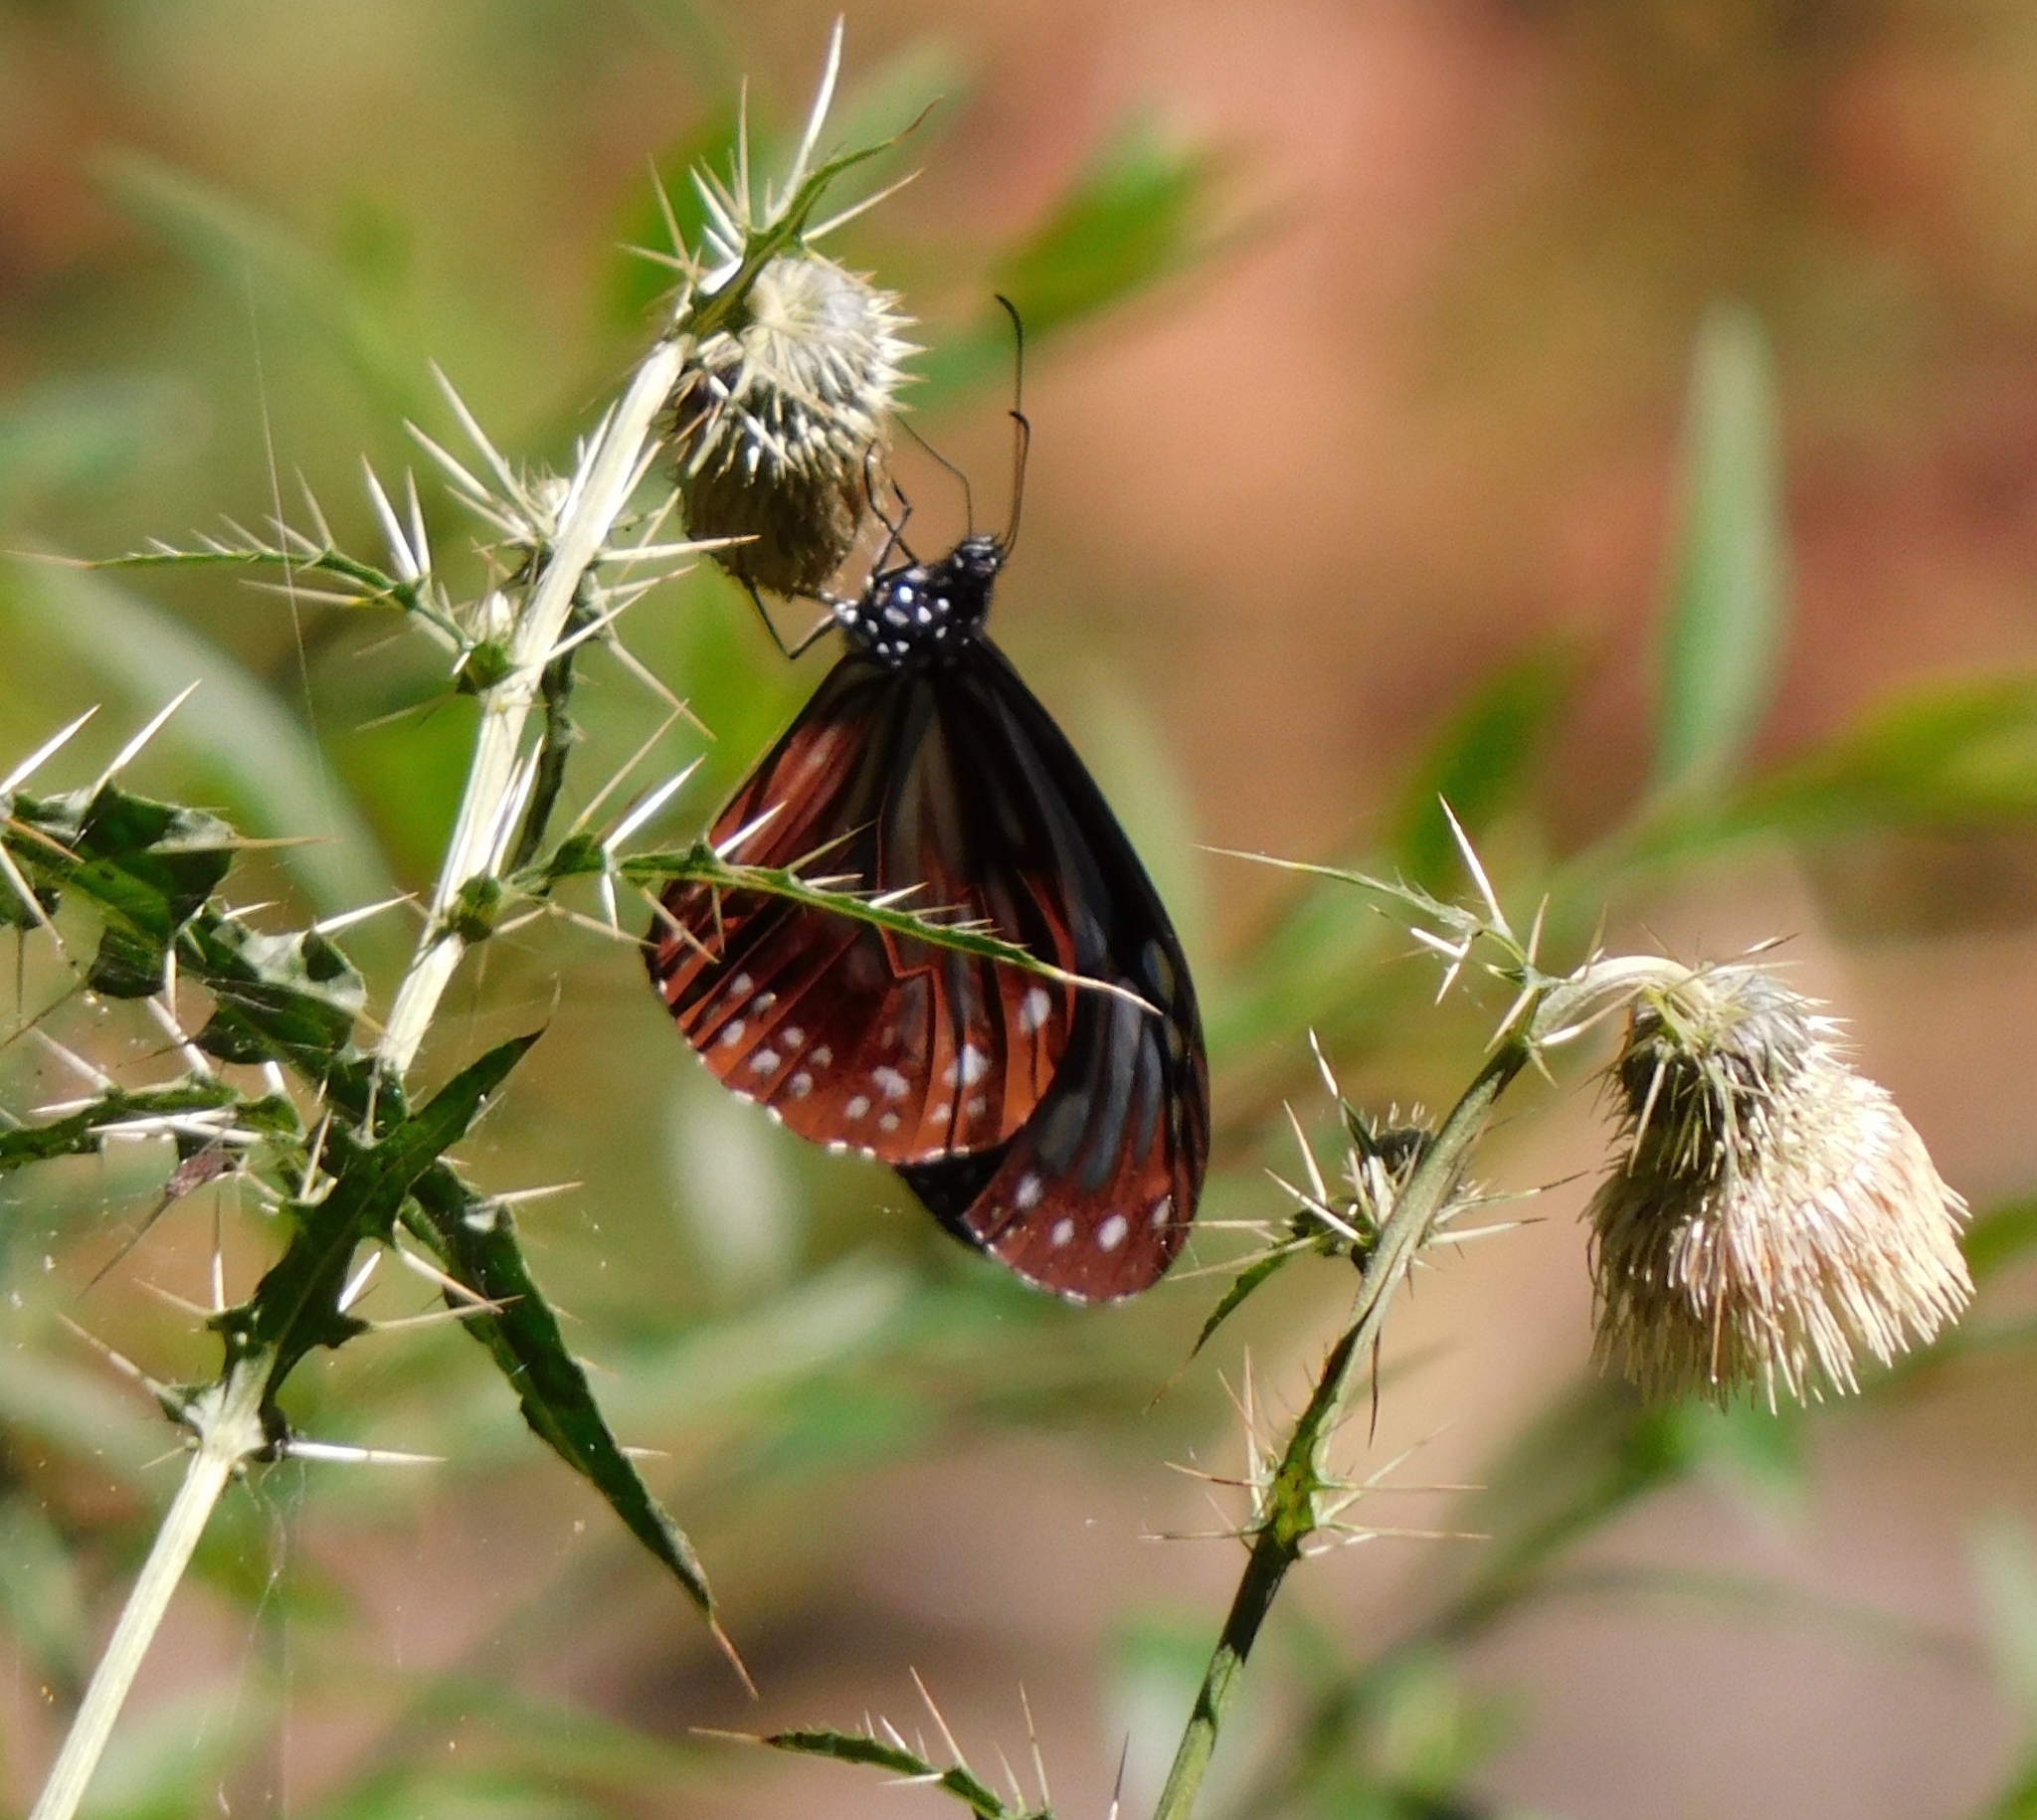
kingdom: Animalia
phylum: Arthropoda
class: Insecta
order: Lepidoptera
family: Nymphalidae
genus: Parantica
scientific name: Parantica sita
